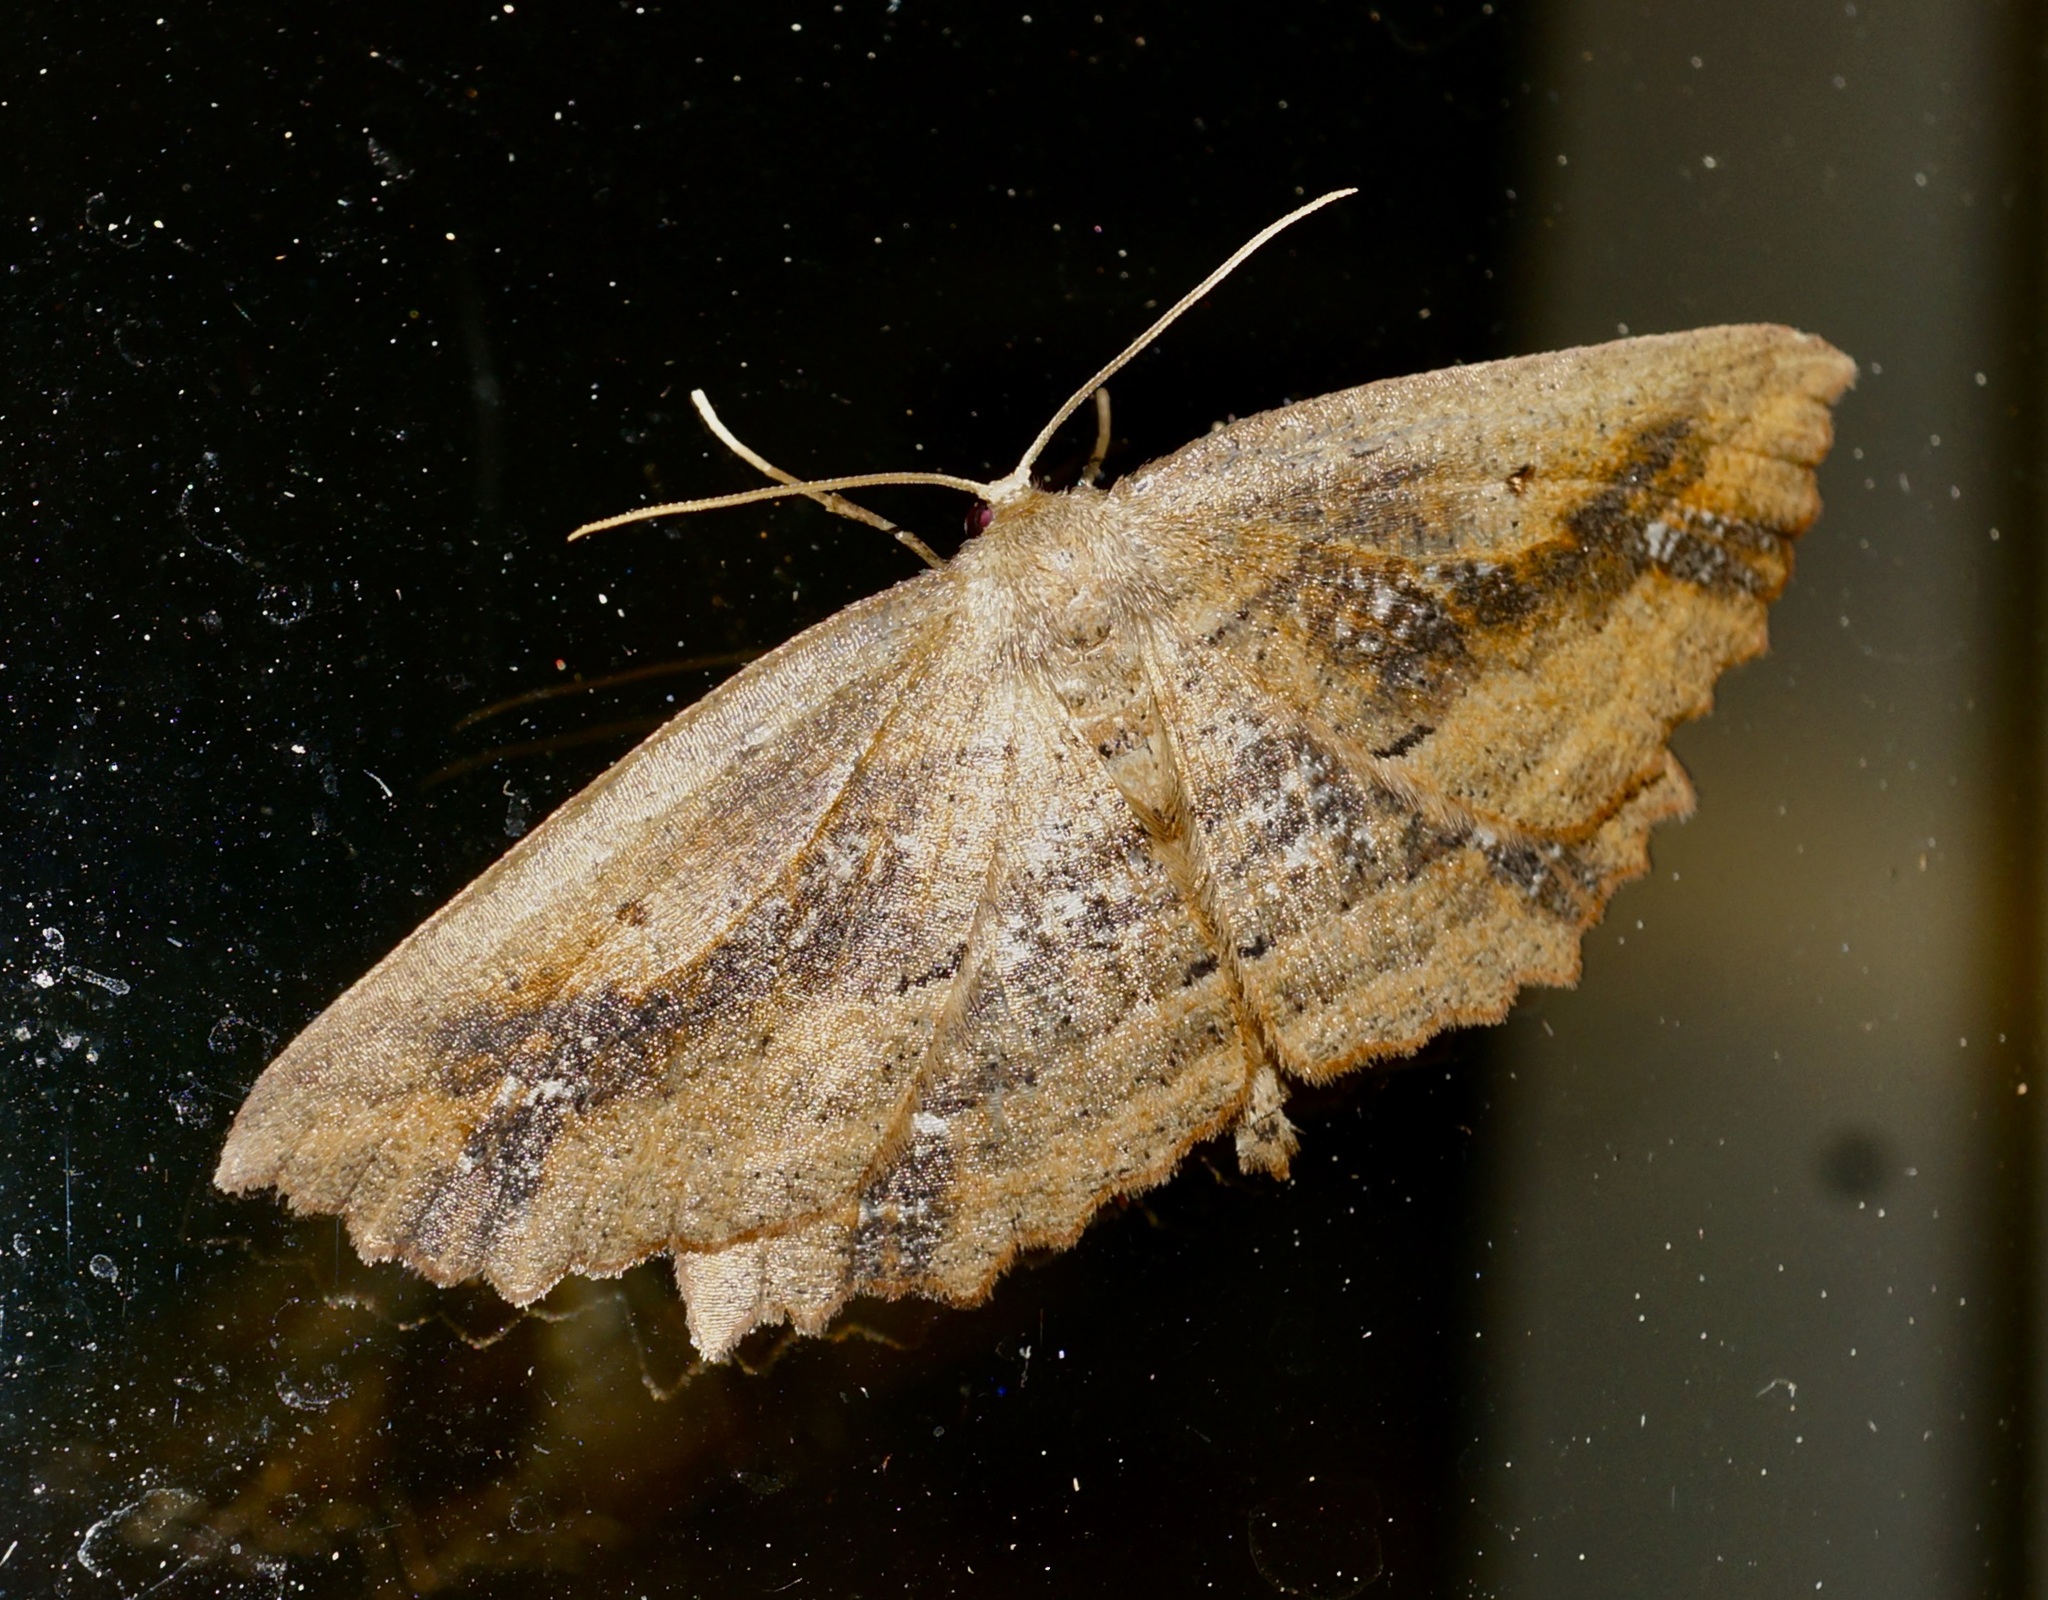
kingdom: Animalia
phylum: Arthropoda
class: Insecta
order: Lepidoptera
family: Geometridae
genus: Xyridacma
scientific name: Xyridacma veronicae
